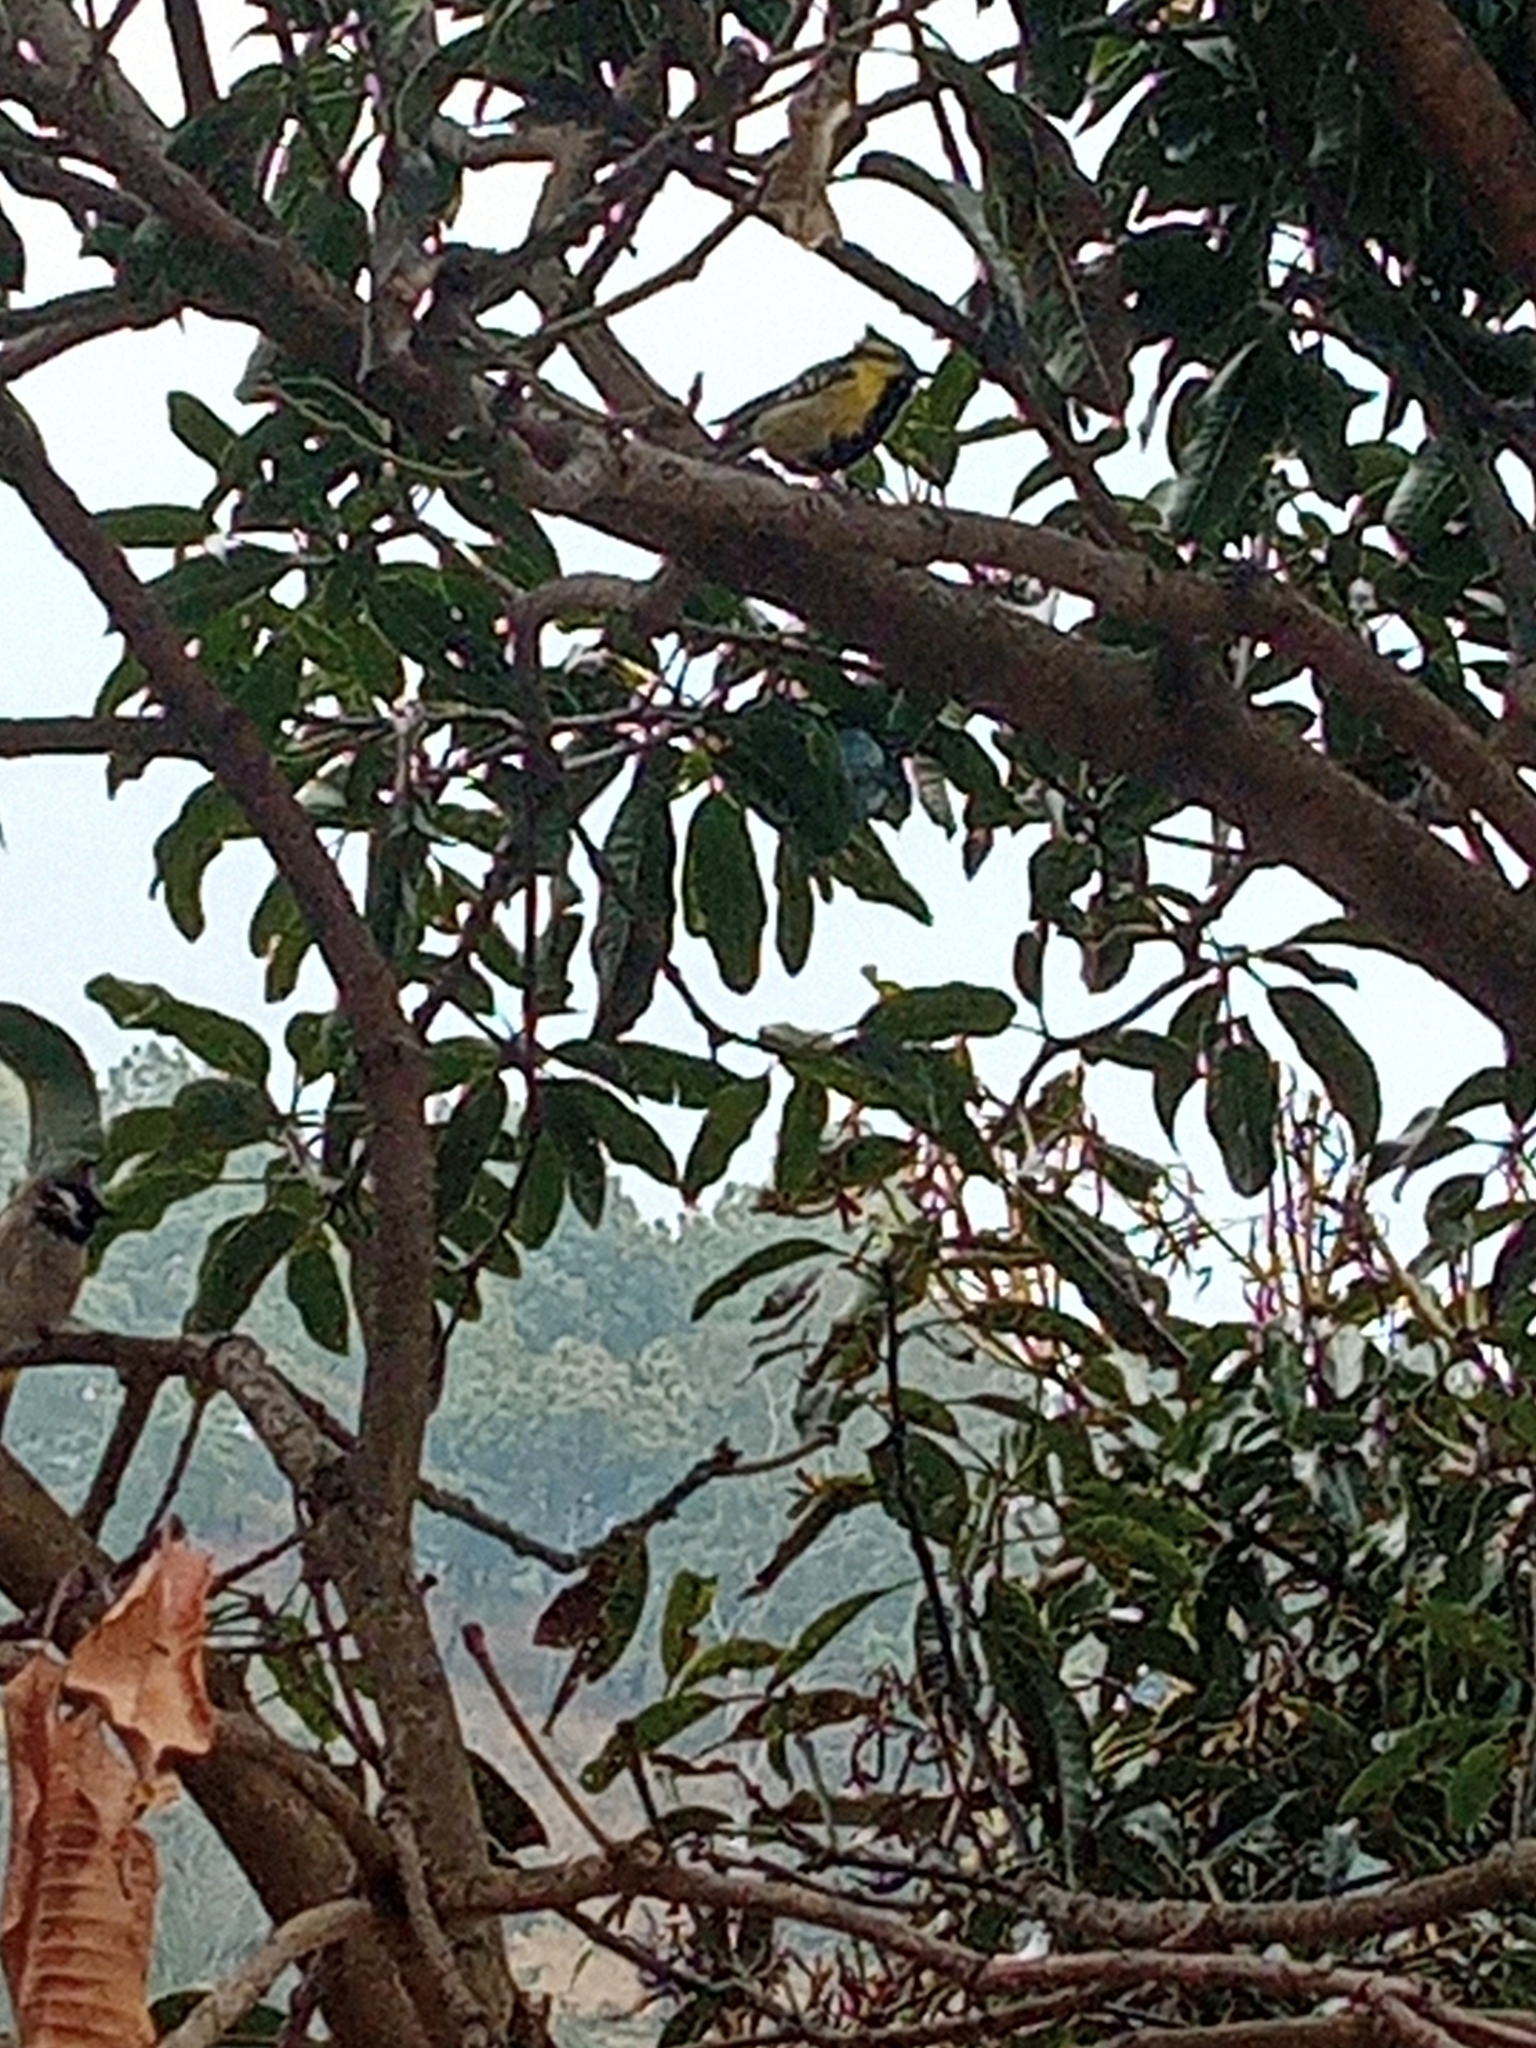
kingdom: Animalia
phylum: Chordata
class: Aves
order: Passeriformes
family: Paridae
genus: Parus
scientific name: Parus xanthogenys
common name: Black-lored tit
